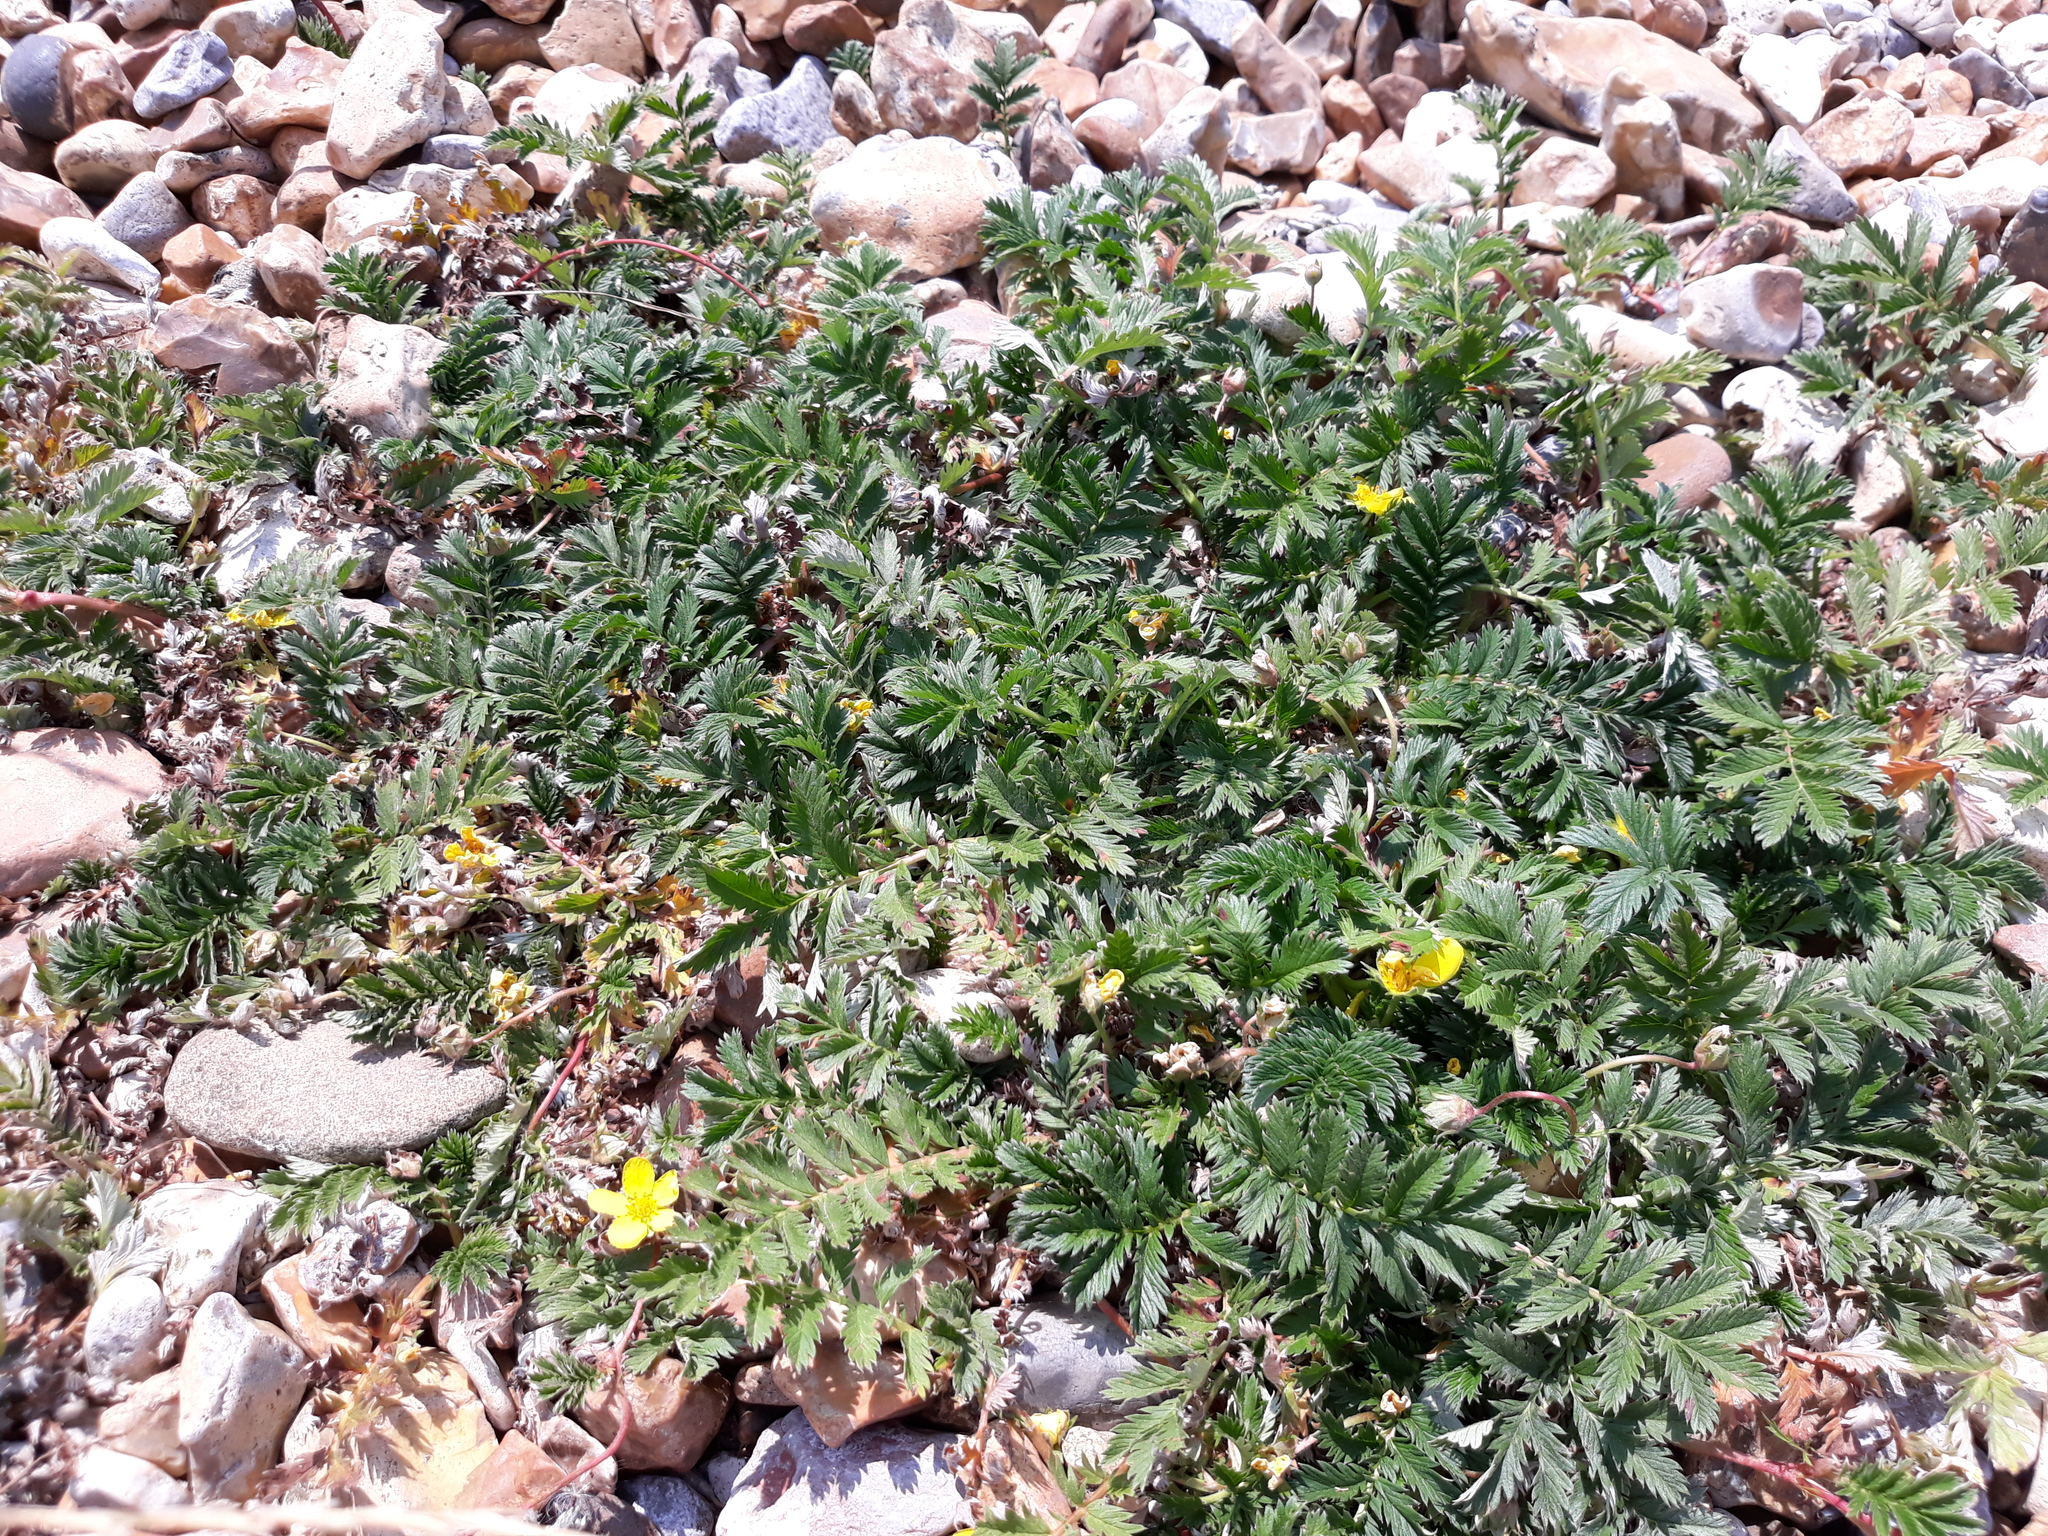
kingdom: Plantae
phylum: Tracheophyta
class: Magnoliopsida
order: Rosales
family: Rosaceae
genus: Argentina
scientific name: Argentina anserina
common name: Common silverweed
